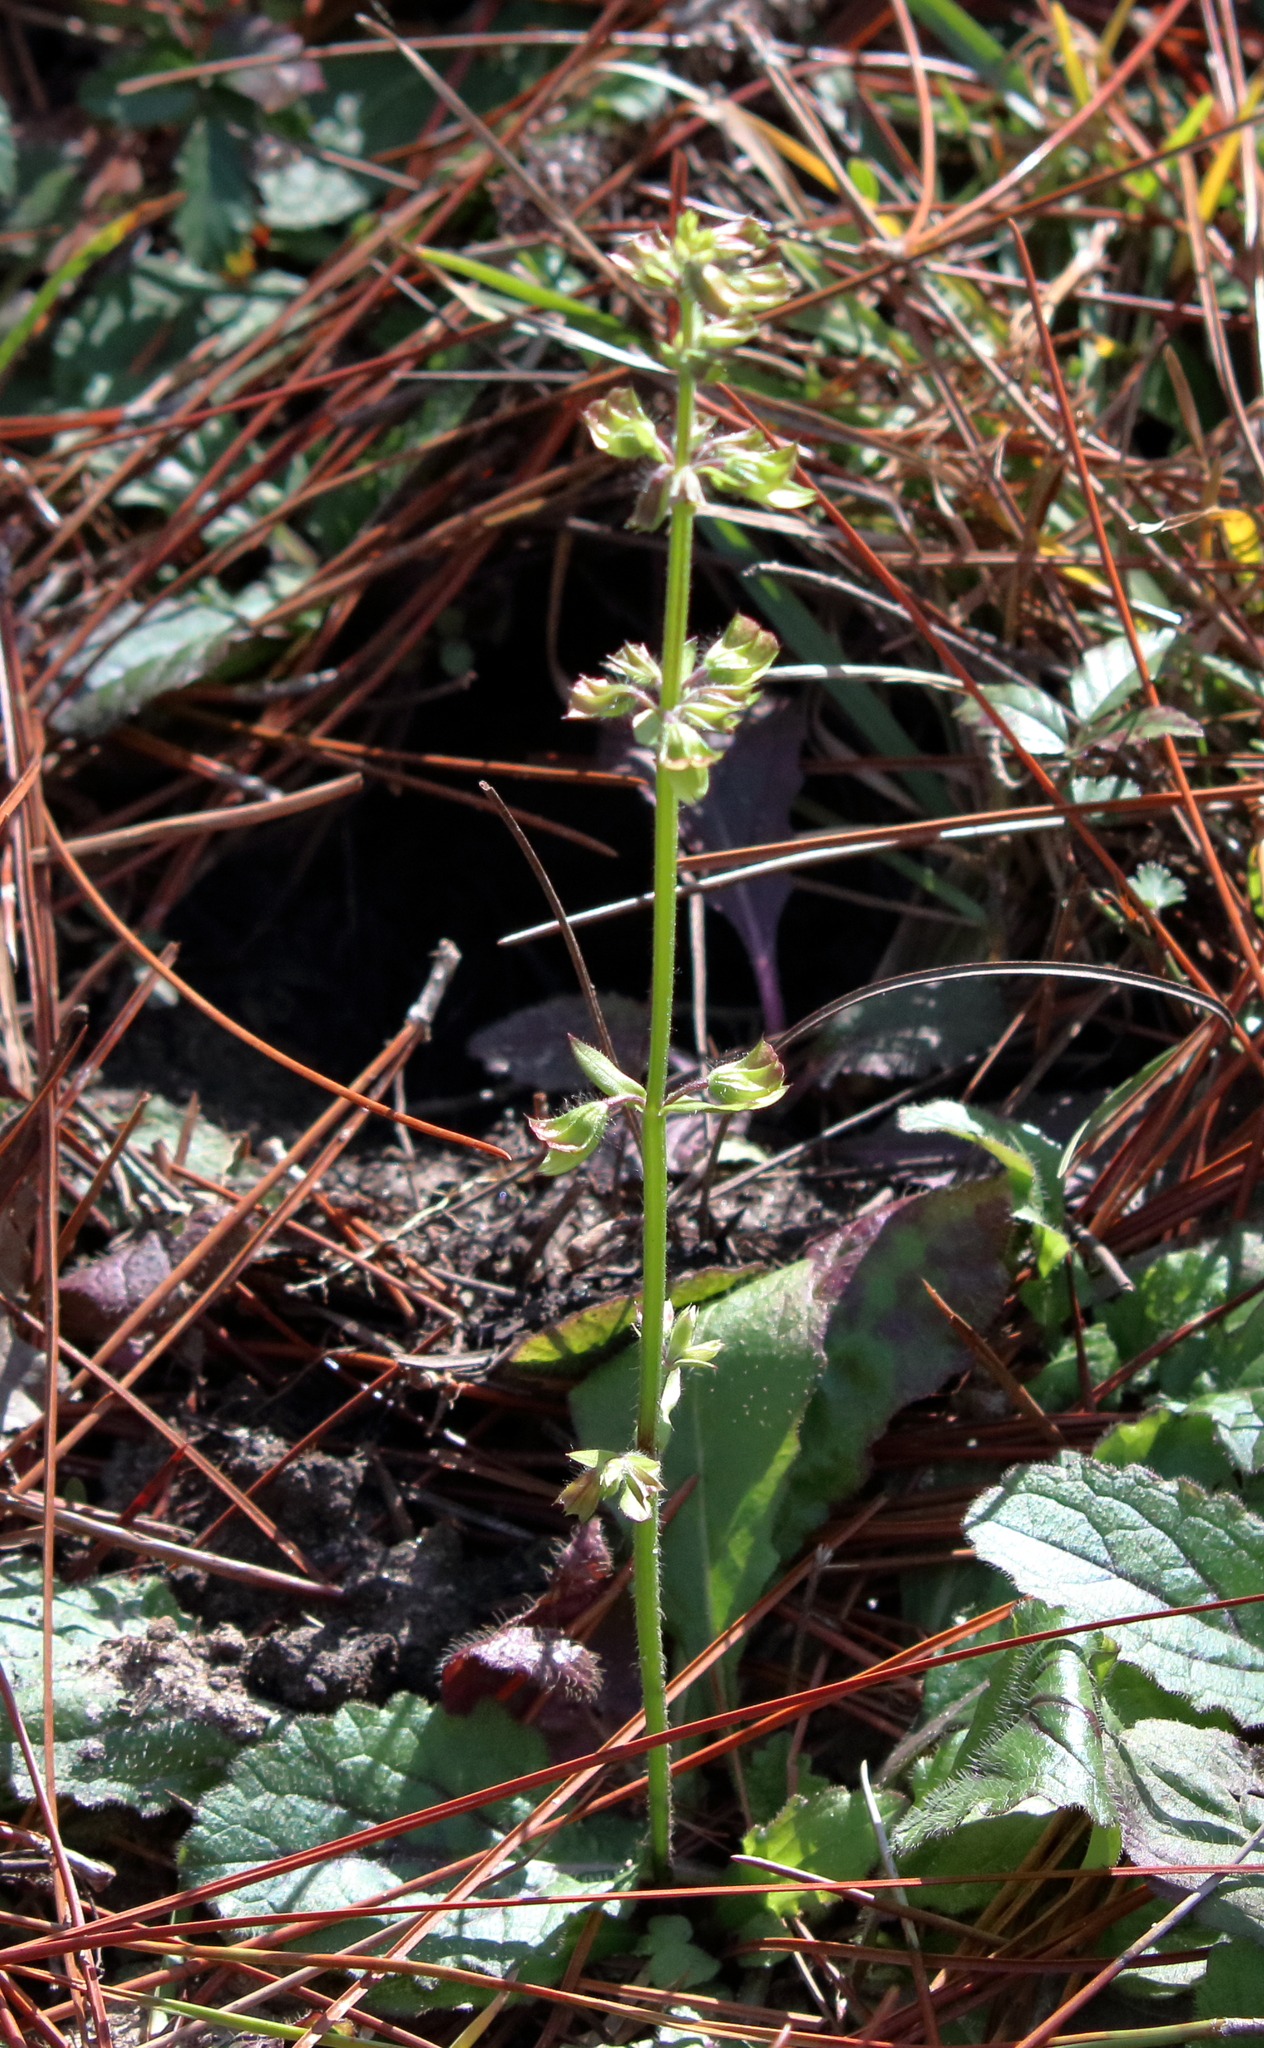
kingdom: Plantae
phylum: Tracheophyta
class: Magnoliopsida
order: Lamiales
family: Lamiaceae
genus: Salvia
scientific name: Salvia lyrata
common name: Cancerweed
